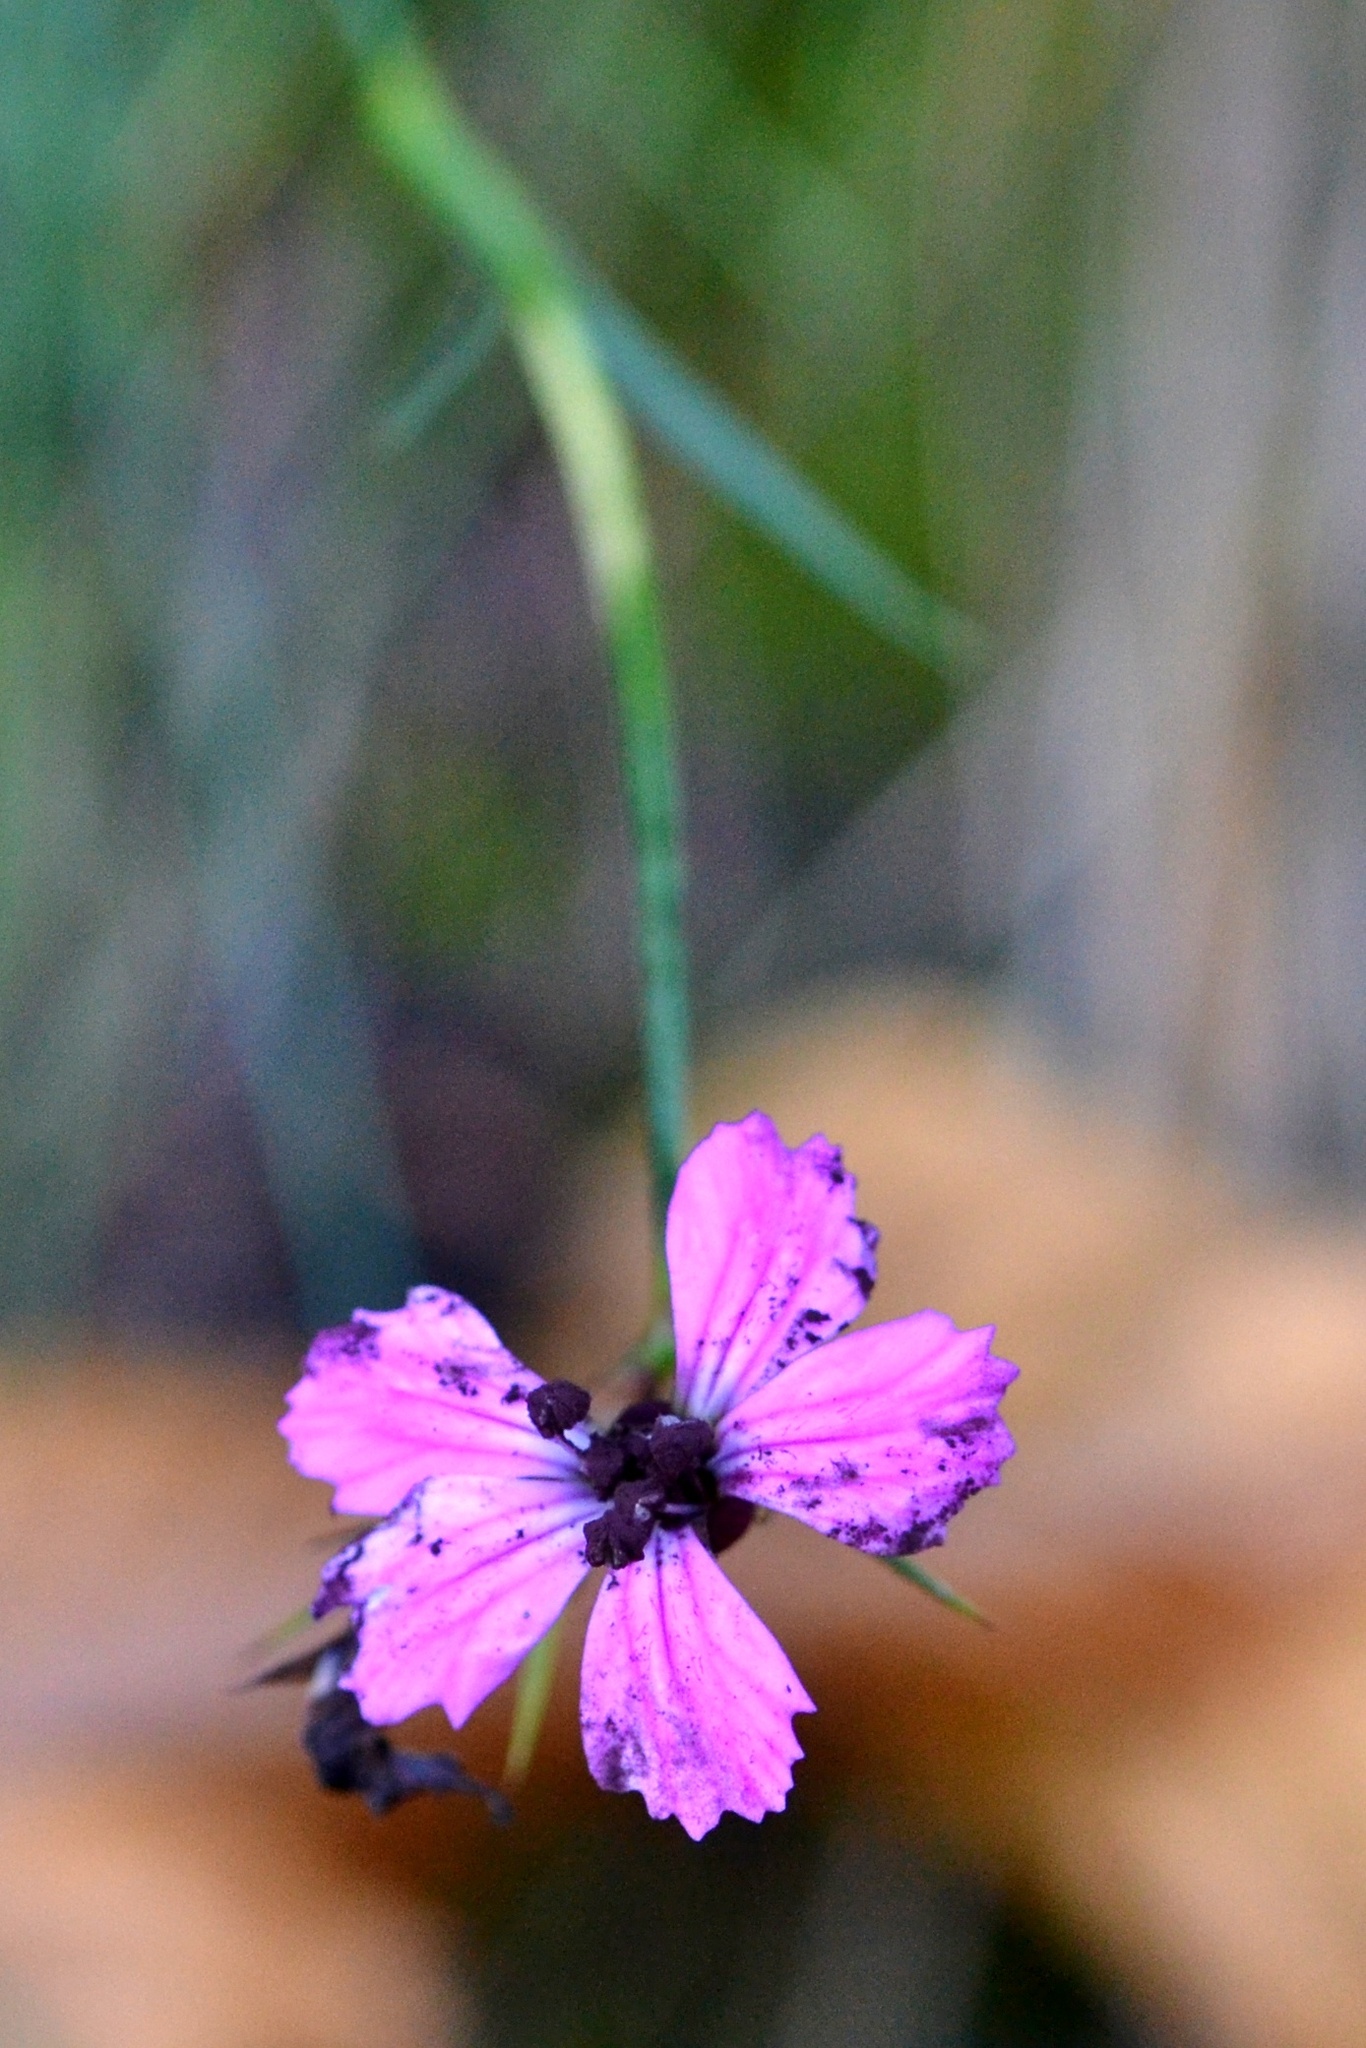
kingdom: Plantae
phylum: Tracheophyta
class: Magnoliopsida
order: Caryophyllales
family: Caryophyllaceae
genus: Dianthus
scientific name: Dianthus carthusianorum
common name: Carthusian pink
